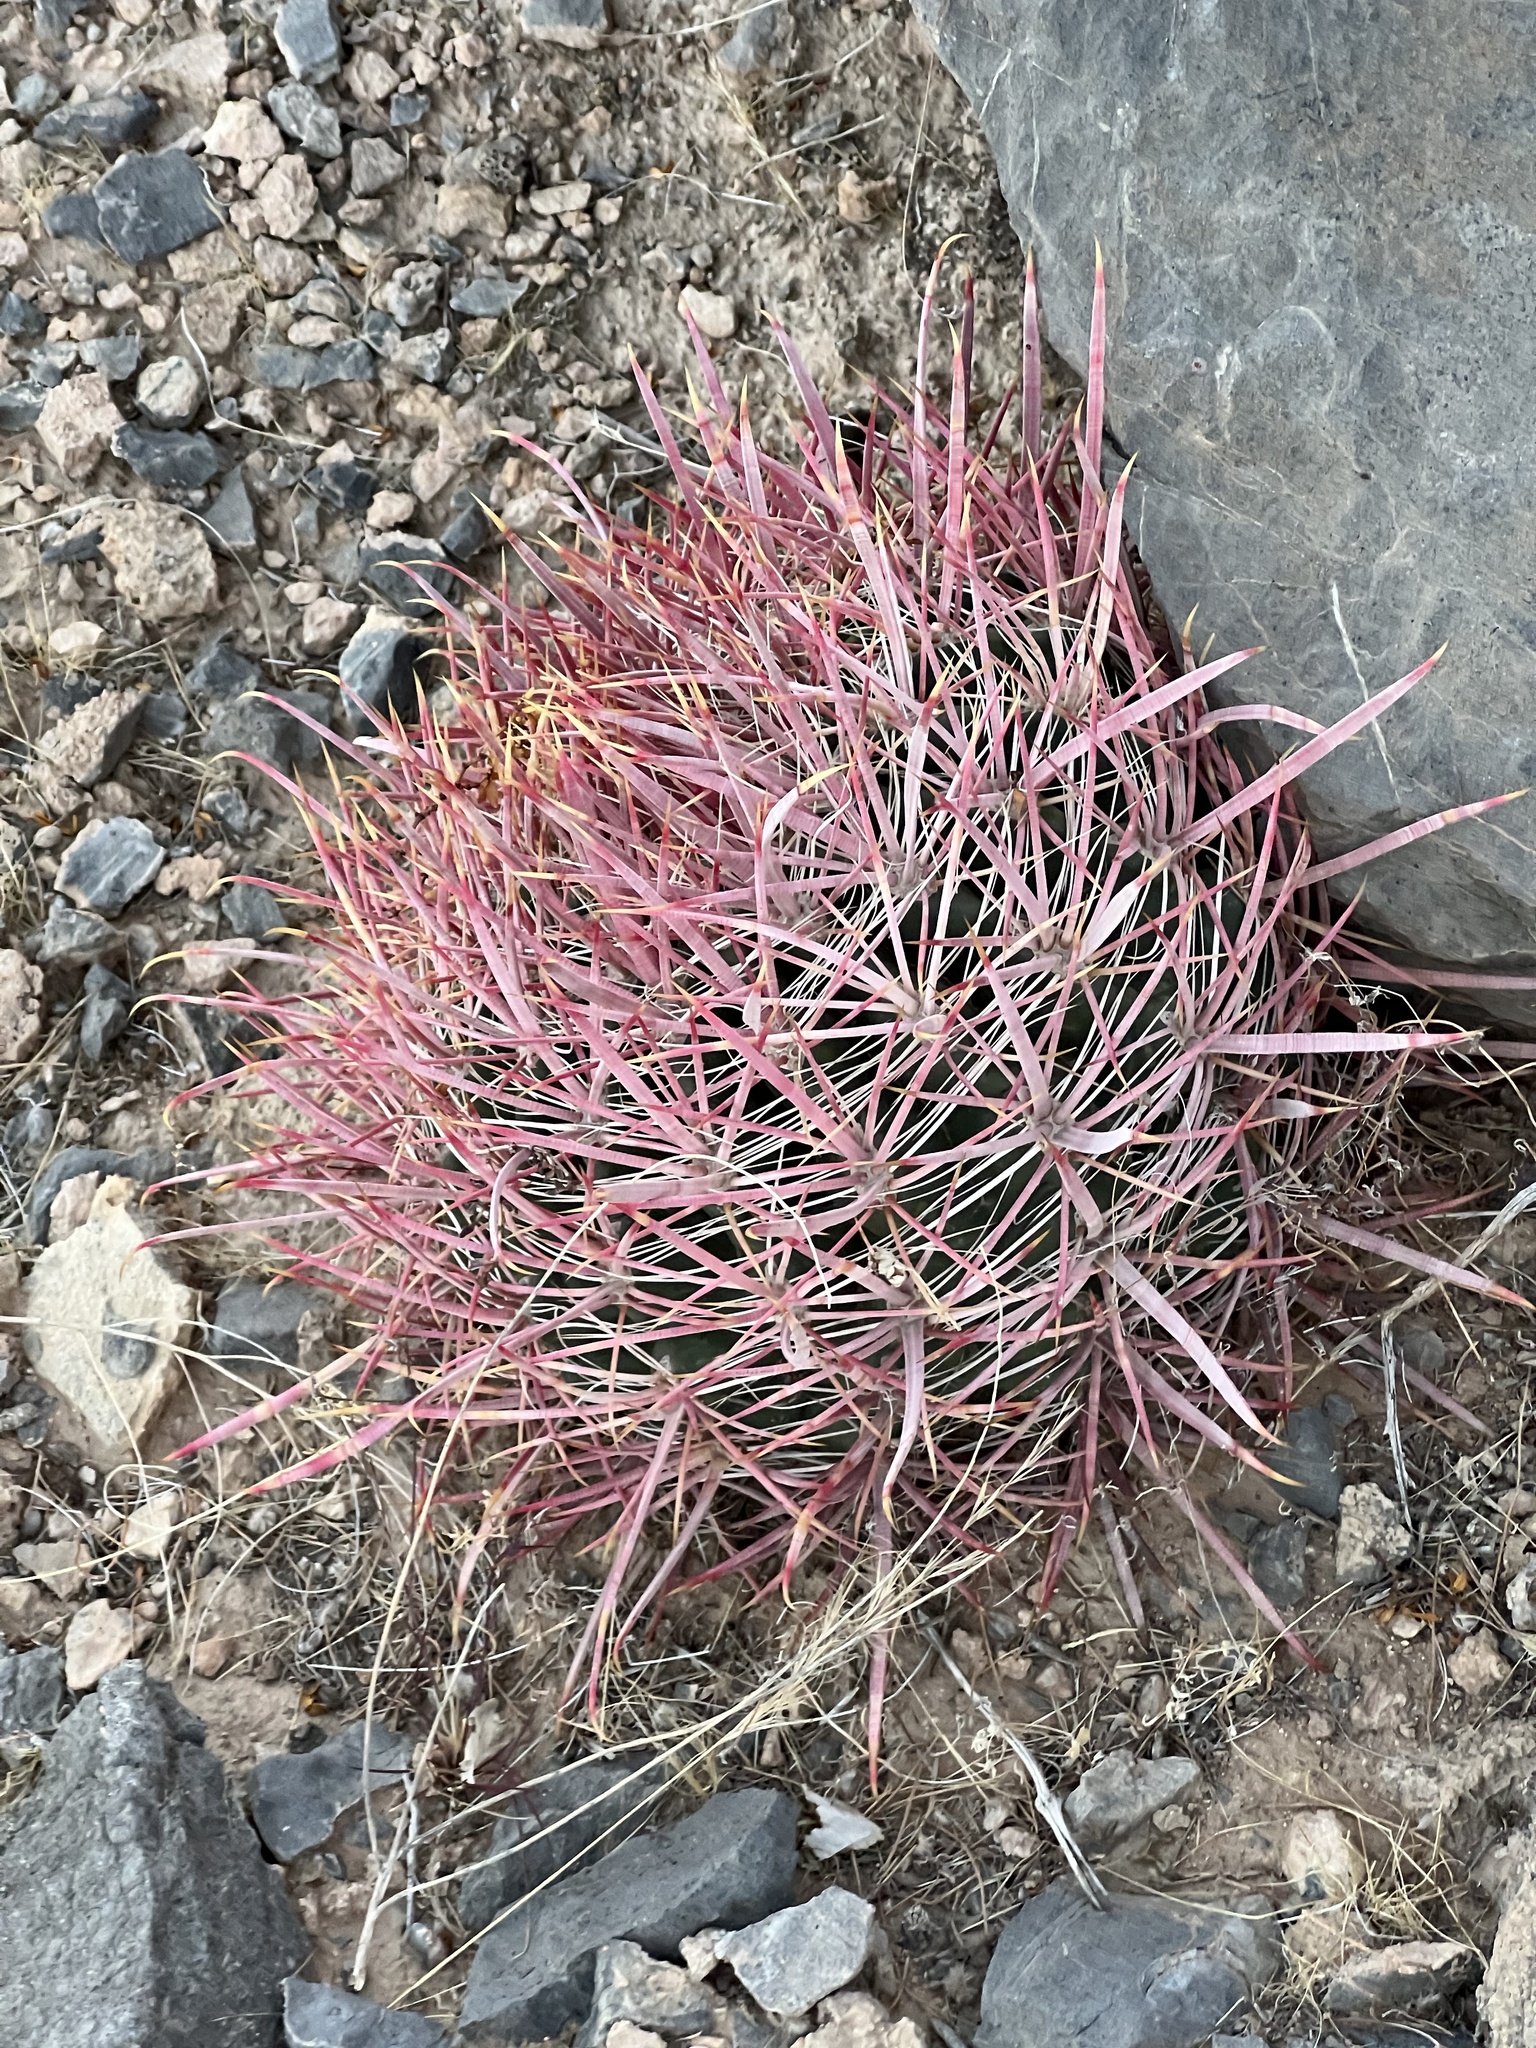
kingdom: Plantae
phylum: Tracheophyta
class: Magnoliopsida
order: Caryophyllales
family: Cactaceae
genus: Ferocactus
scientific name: Ferocactus cylindraceus
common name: California barrel cactus
